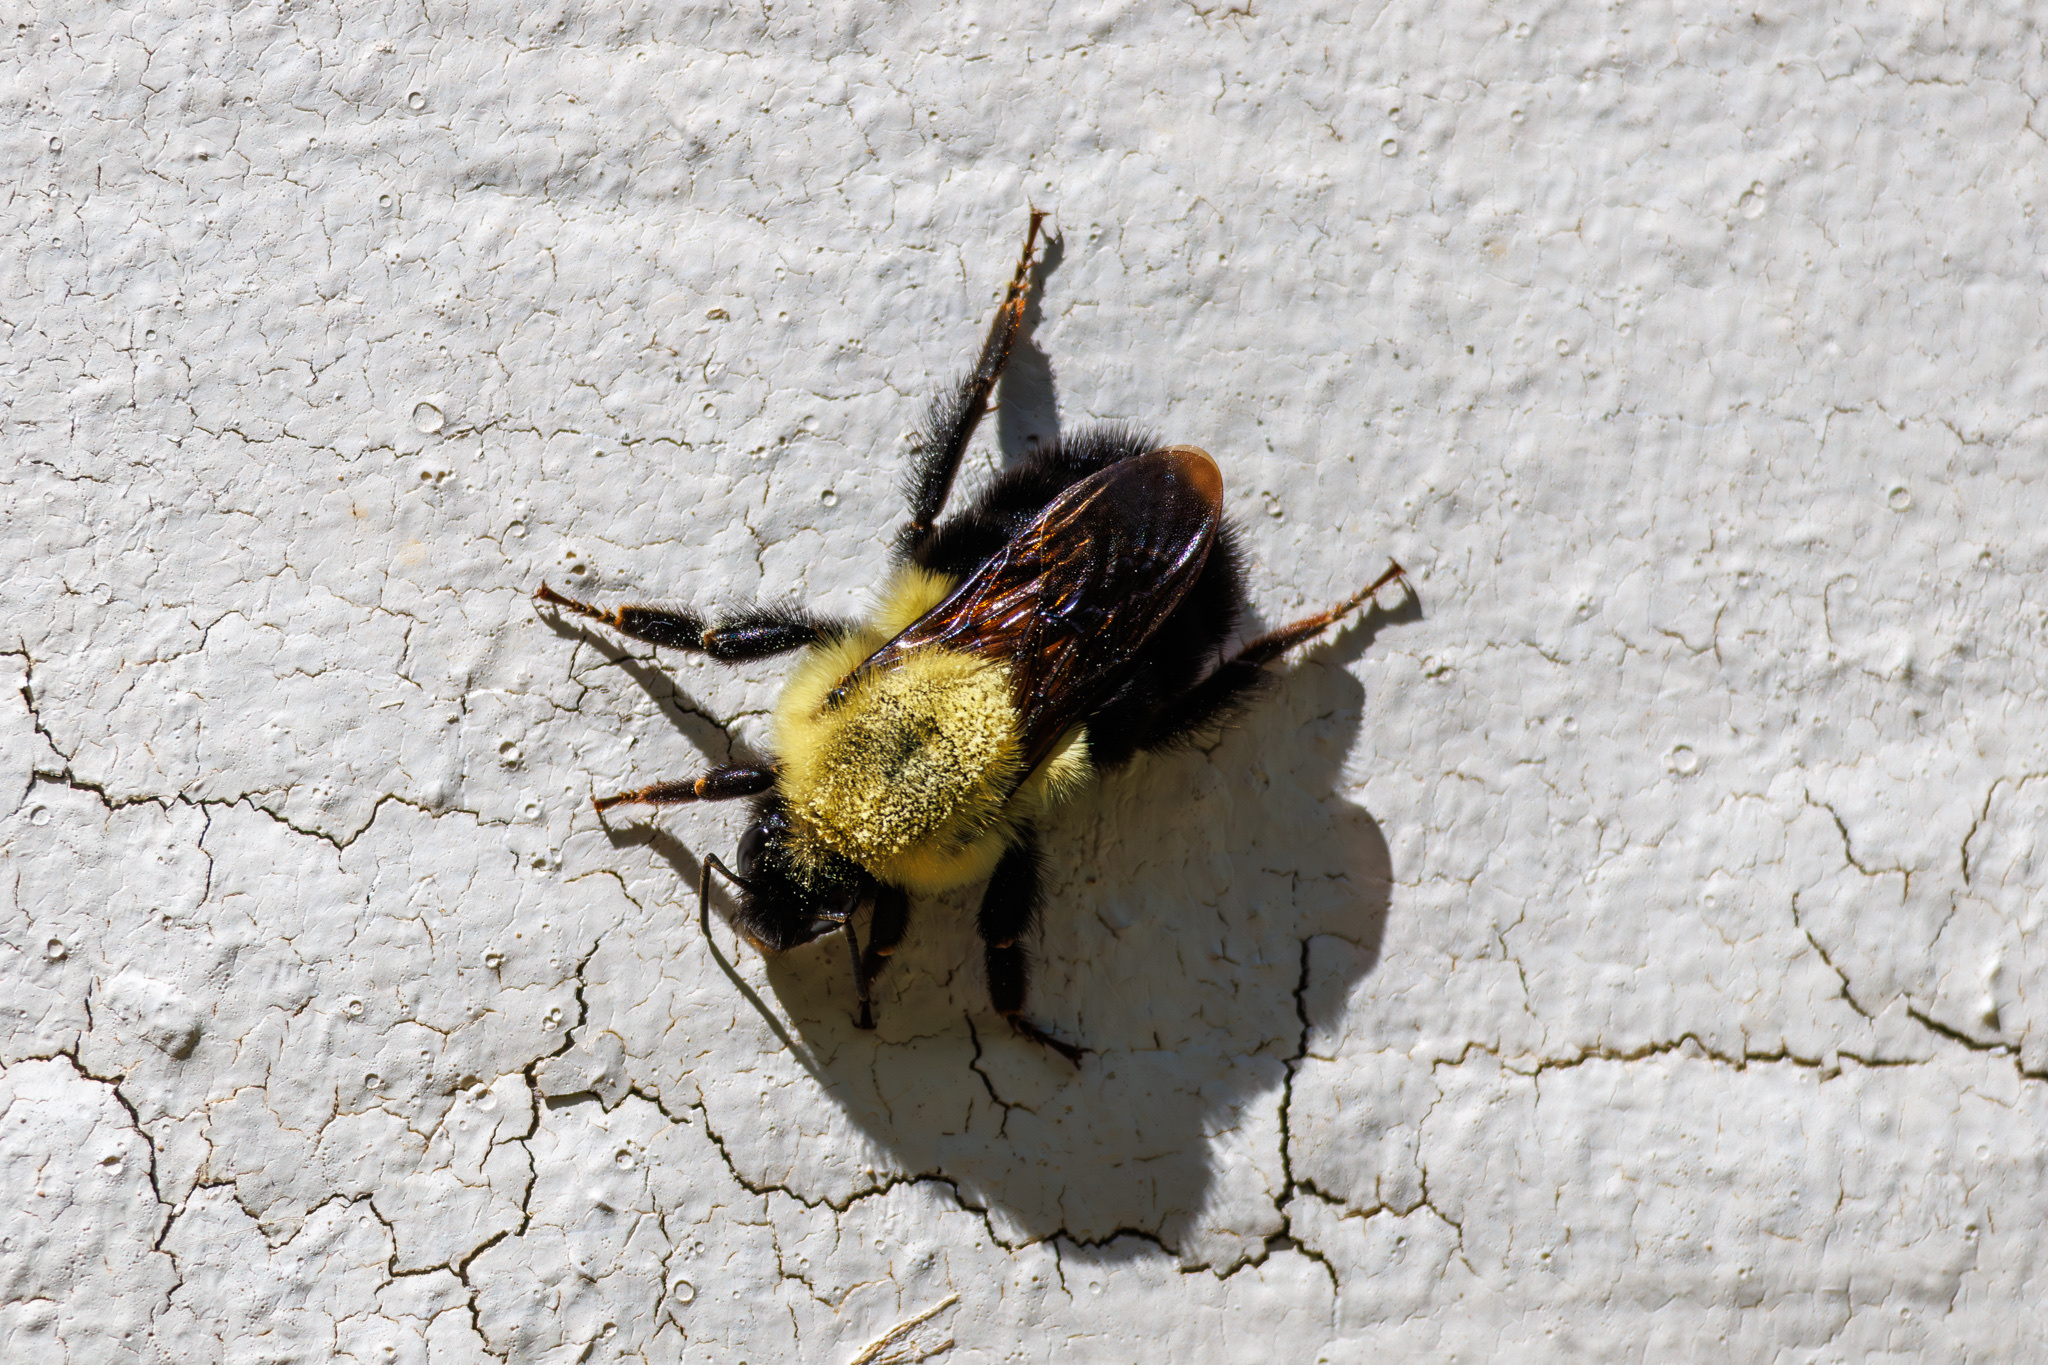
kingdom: Animalia
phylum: Arthropoda
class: Insecta
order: Hymenoptera
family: Apidae
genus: Bombus
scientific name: Bombus impatiens
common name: Common eastern bumble bee
